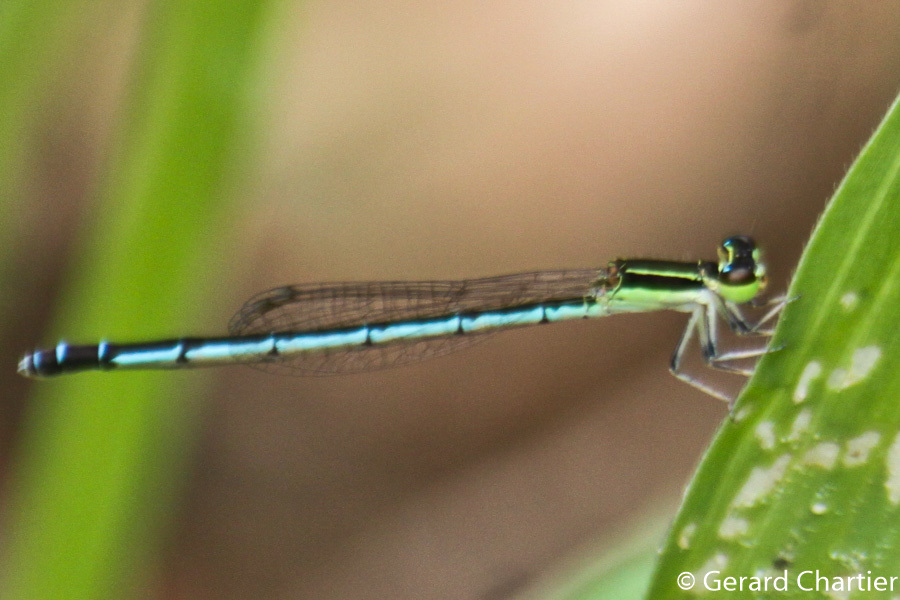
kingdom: Animalia
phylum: Arthropoda
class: Insecta
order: Odonata
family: Coenagrionidae
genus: Agriocnemis
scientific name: Agriocnemis nana
